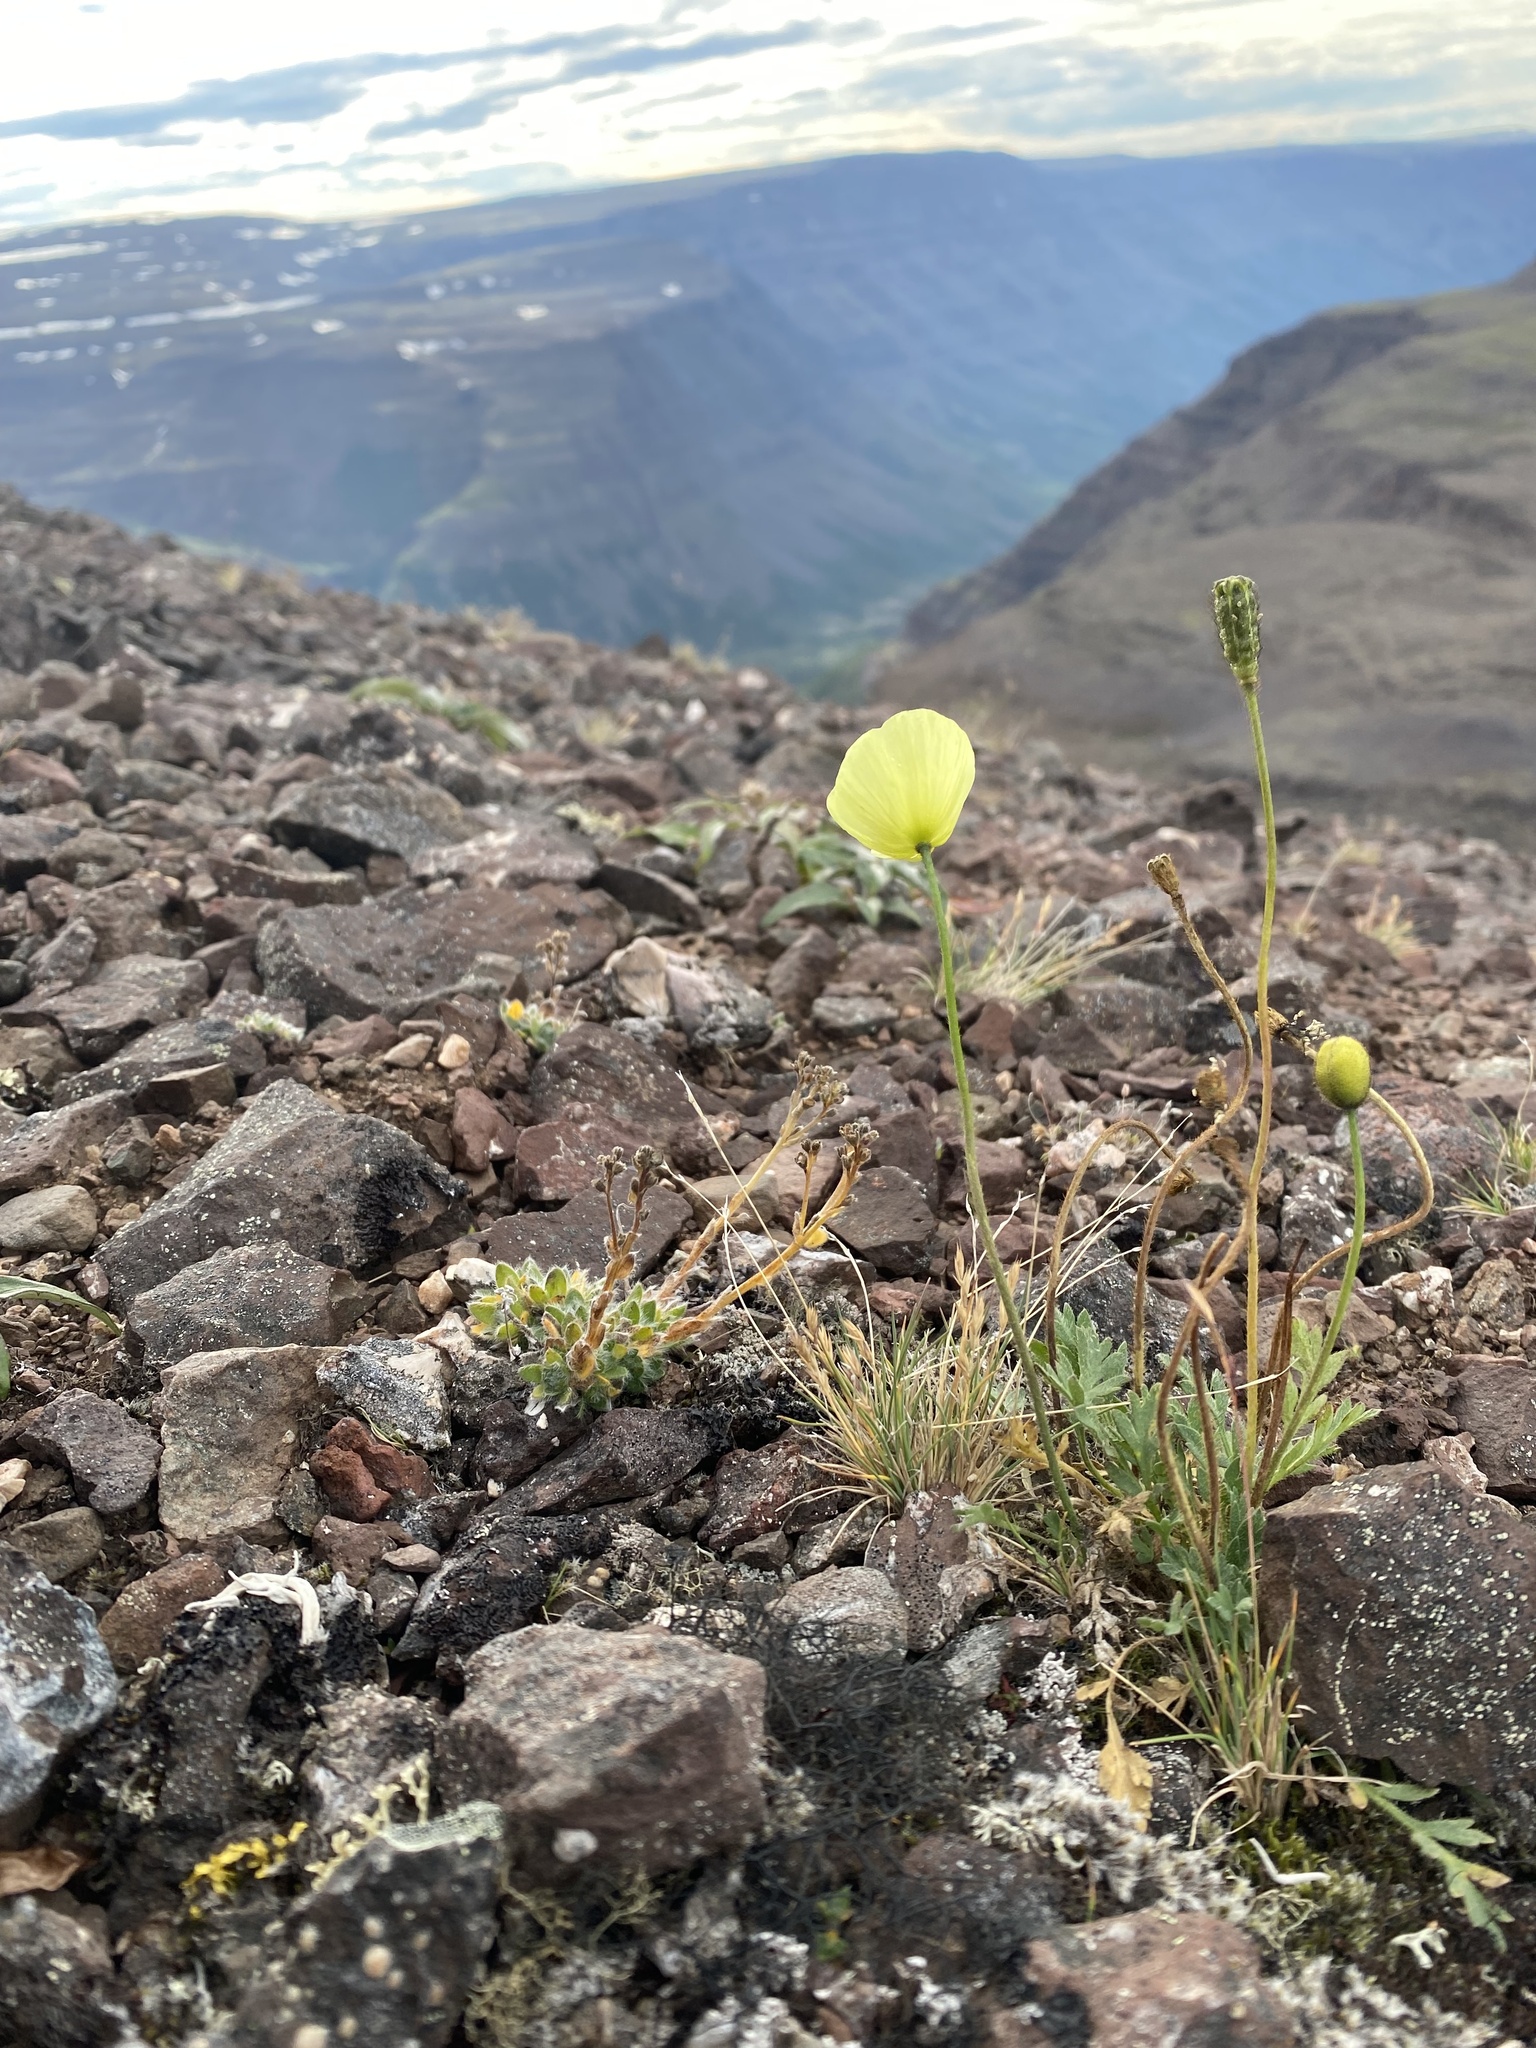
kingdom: Plantae
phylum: Tracheophyta
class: Magnoliopsida
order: Ranunculales
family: Papaveraceae
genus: Papaver
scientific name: Papaver lapponicum
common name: Lapland poppy
